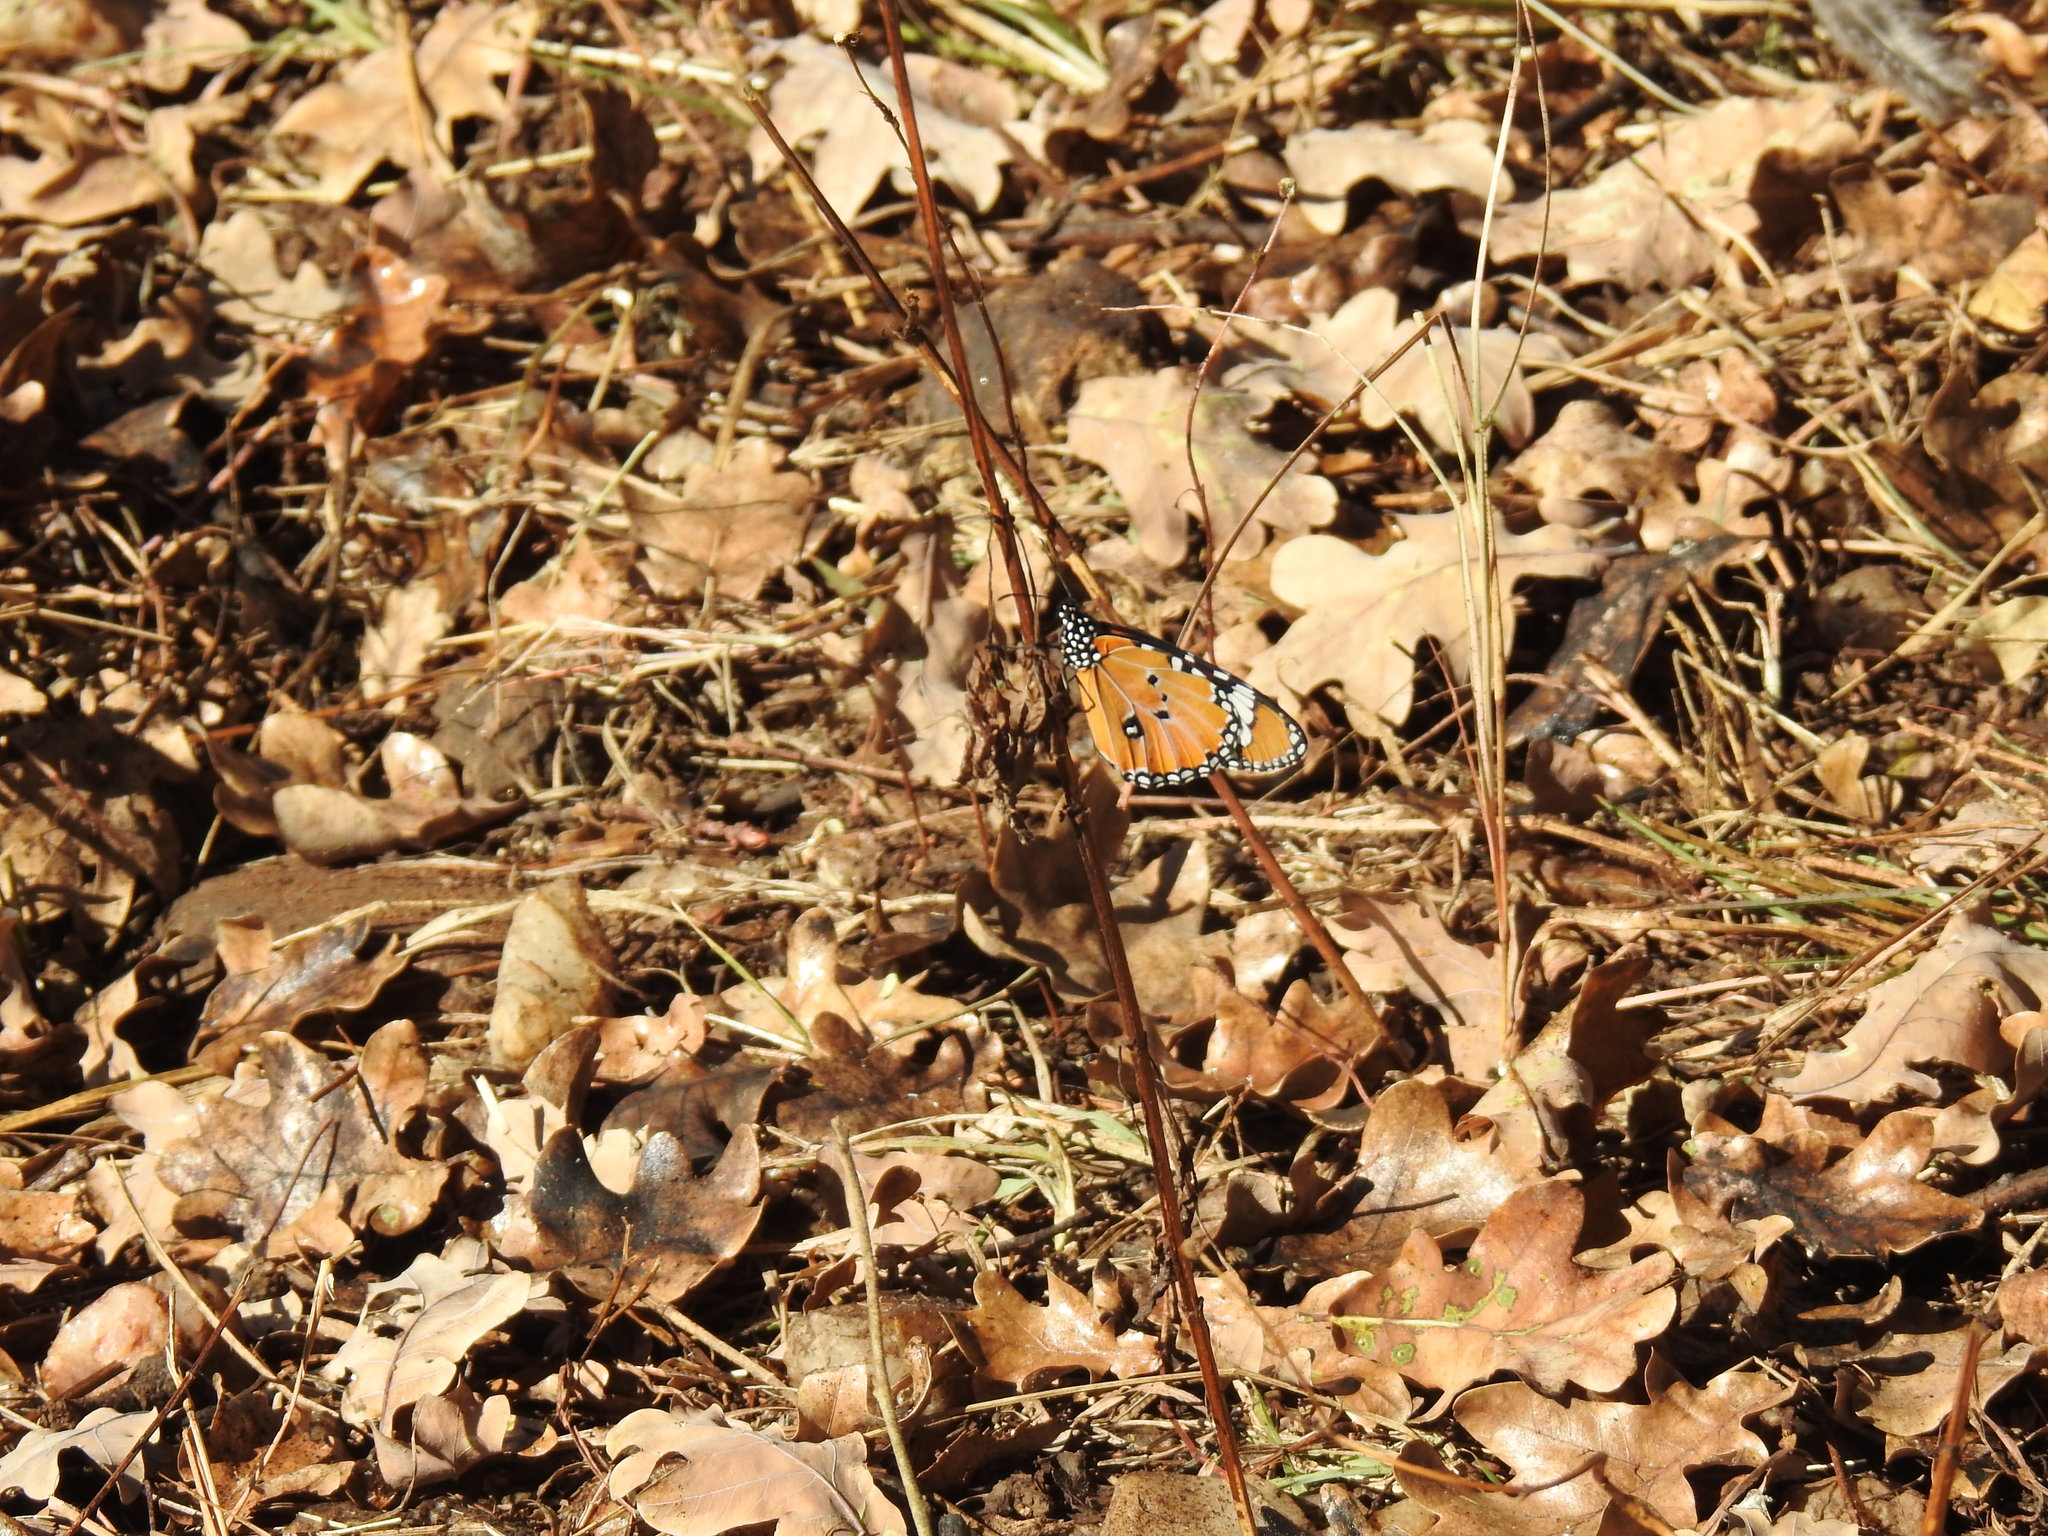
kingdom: Animalia
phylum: Arthropoda
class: Insecta
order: Lepidoptera
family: Nymphalidae
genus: Danaus
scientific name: Danaus chrysippus
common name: Plain tiger
